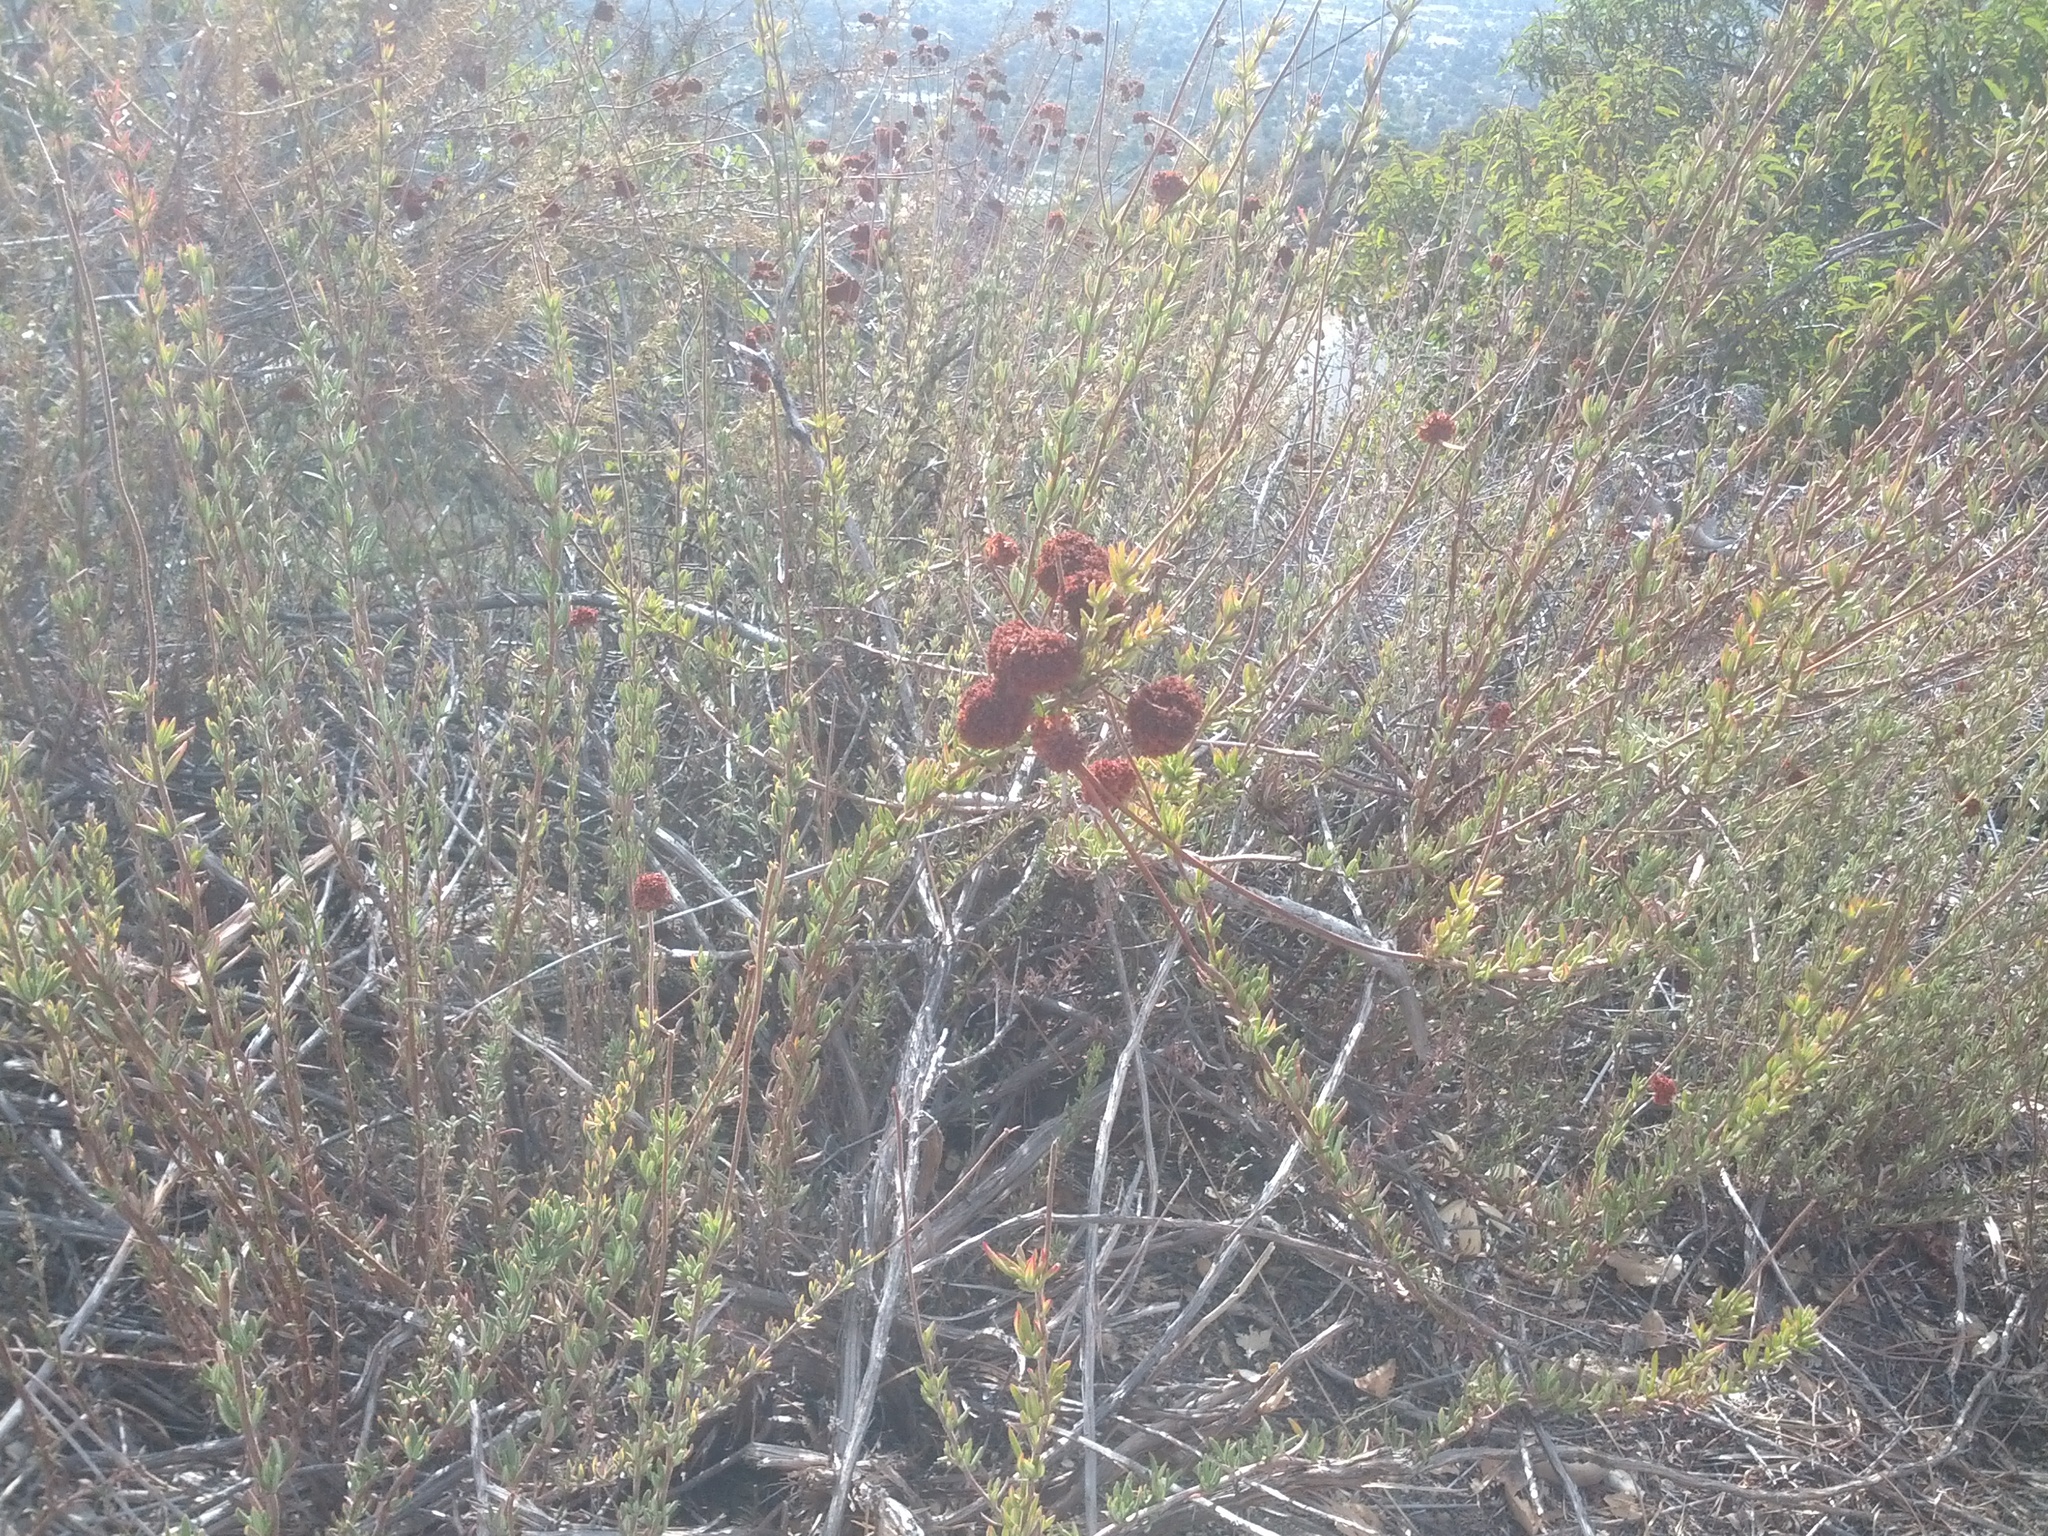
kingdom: Plantae
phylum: Tracheophyta
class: Magnoliopsida
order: Caryophyllales
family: Polygonaceae
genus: Eriogonum
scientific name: Eriogonum fasciculatum
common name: California wild buckwheat
